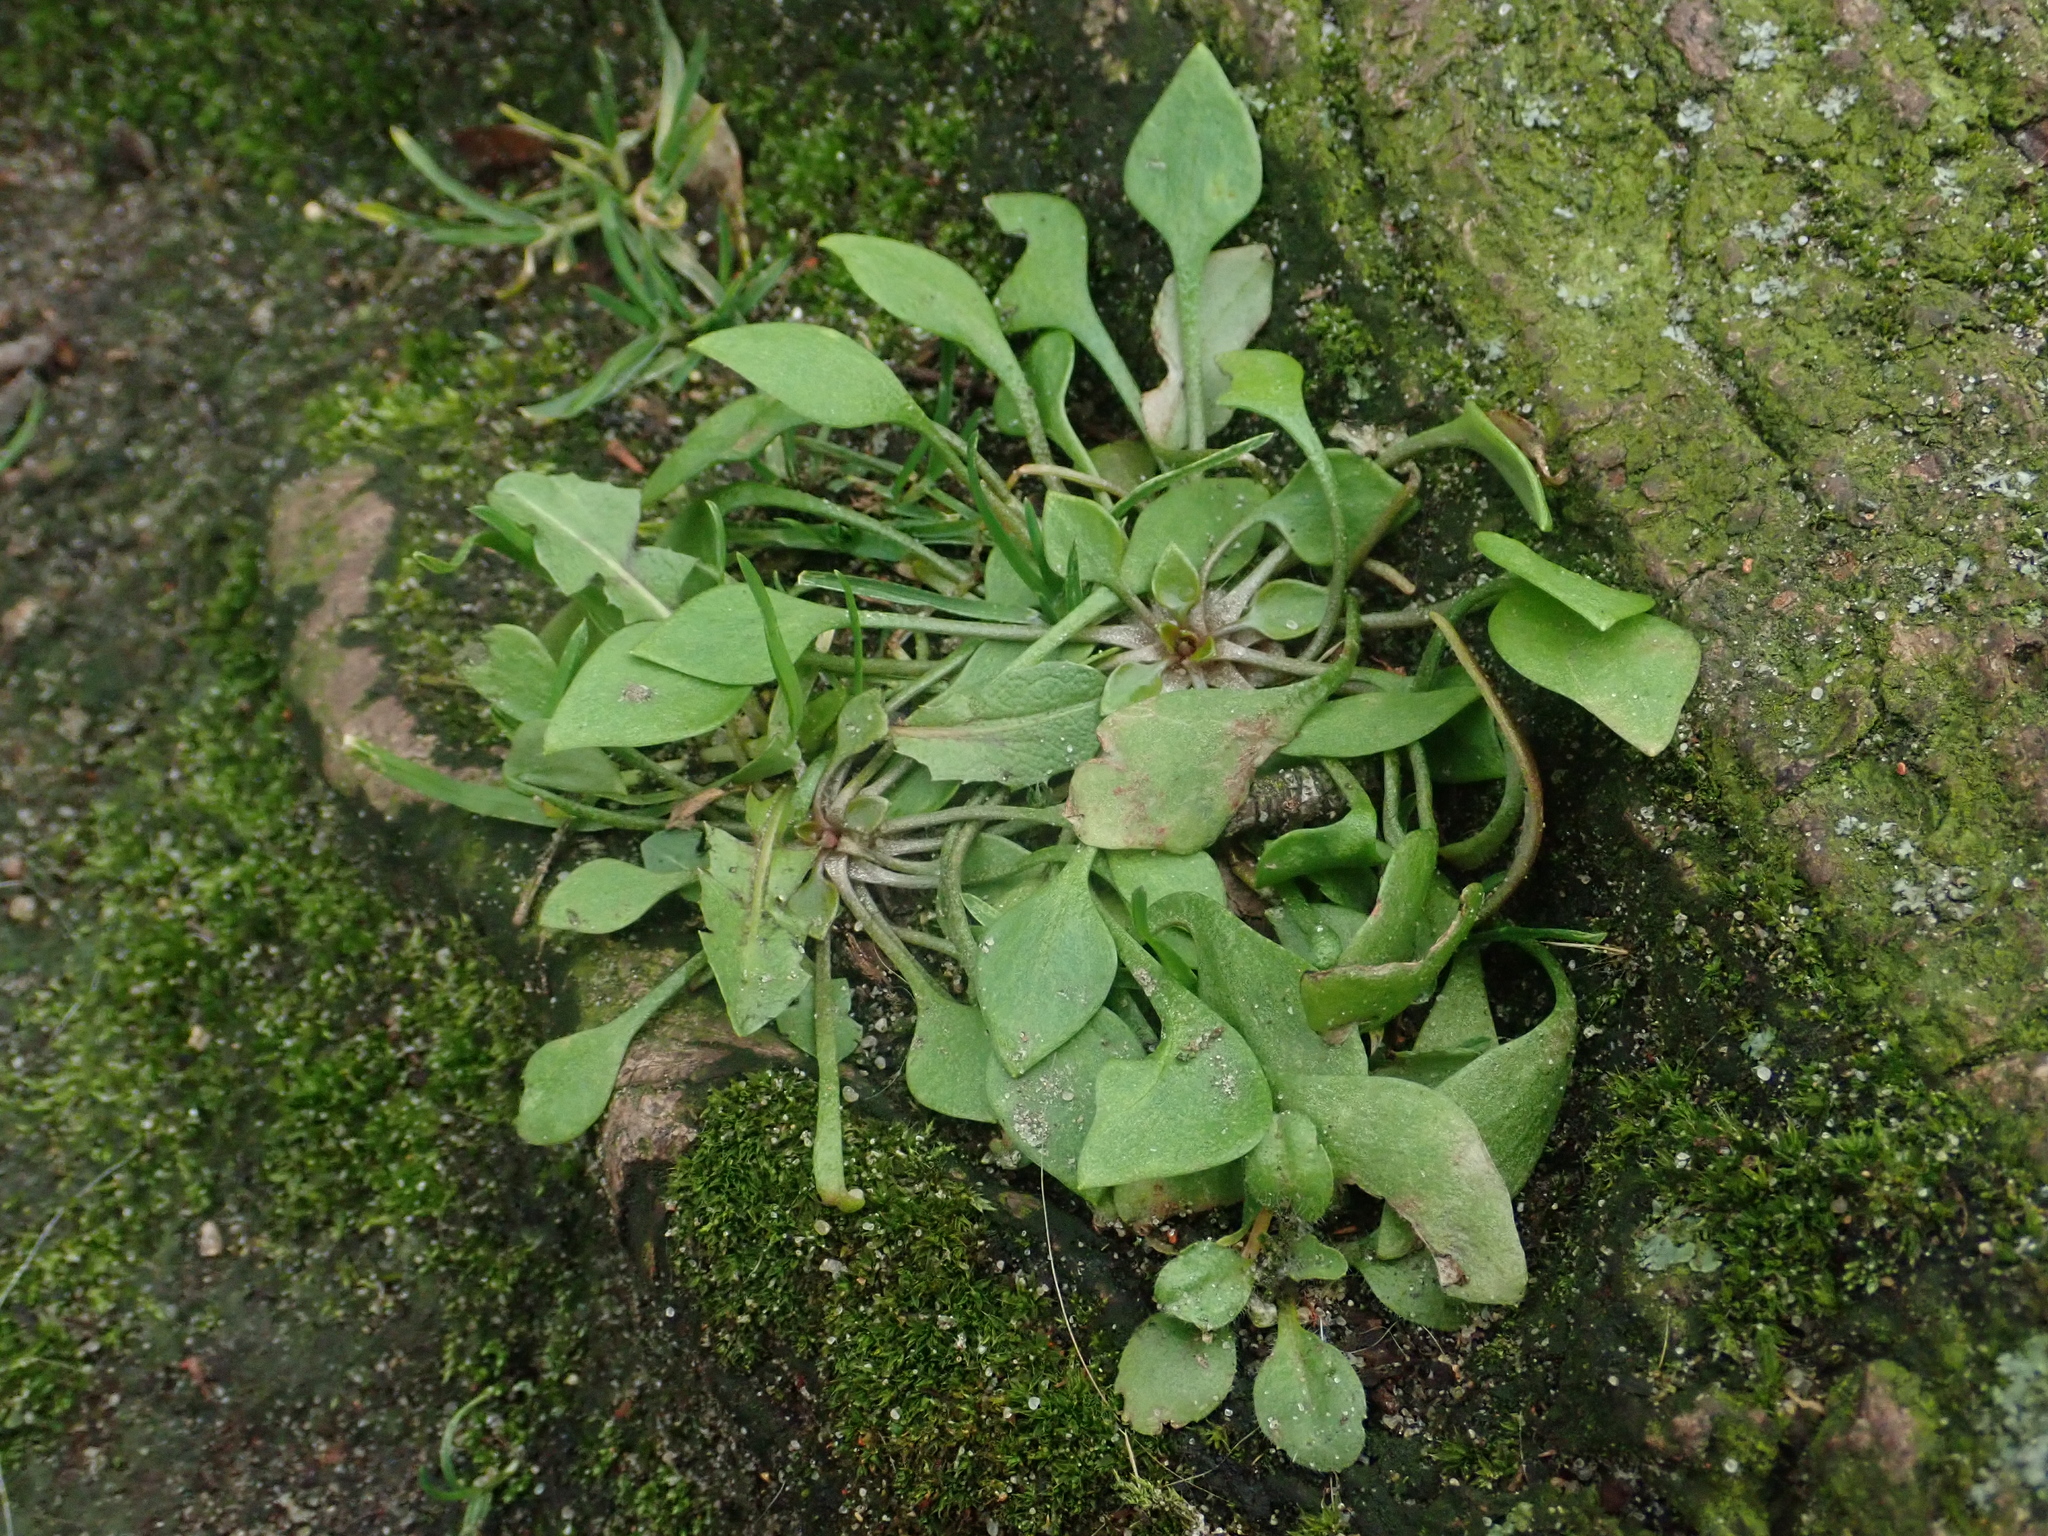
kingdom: Plantae
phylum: Tracheophyta
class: Magnoliopsida
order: Caryophyllales
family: Montiaceae
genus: Claytonia
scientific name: Claytonia perfoliata
